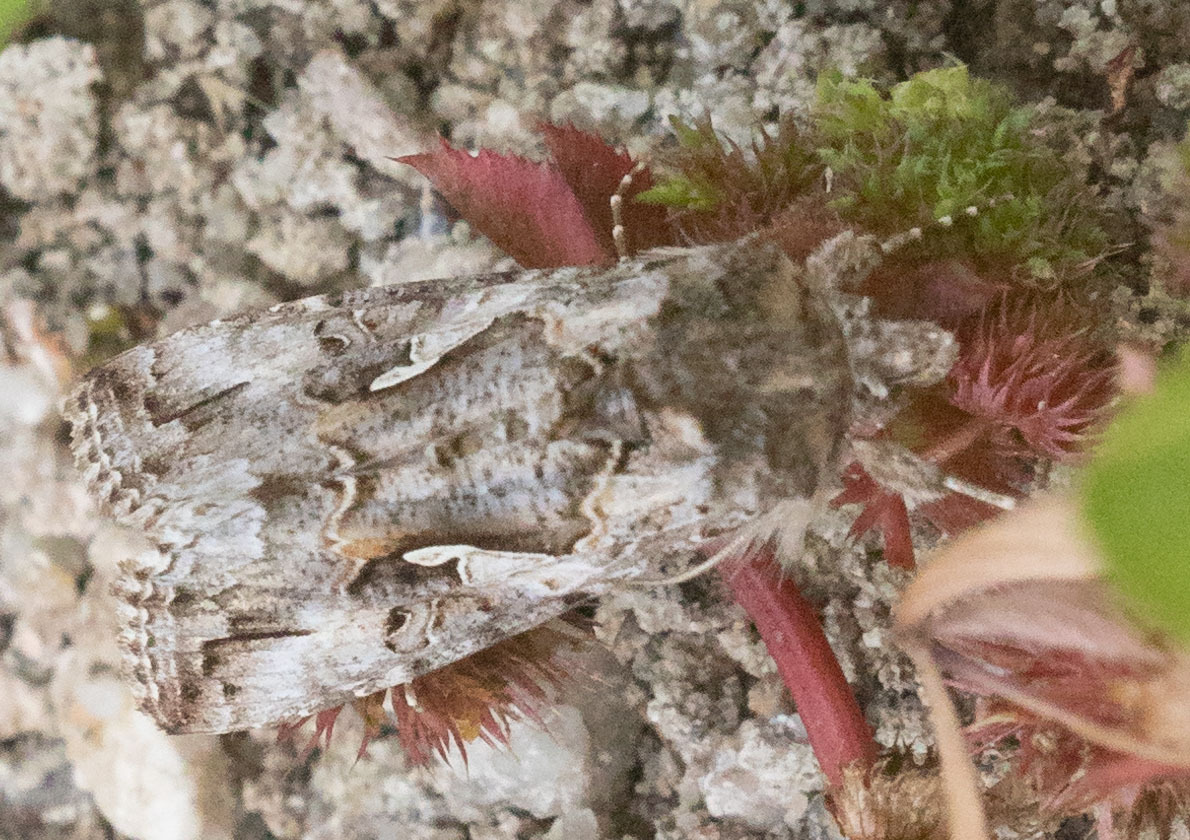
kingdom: Animalia
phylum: Arthropoda
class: Insecta
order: Lepidoptera
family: Noctuidae
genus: Autographa
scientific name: Autographa californica
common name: Alfalfa looper
